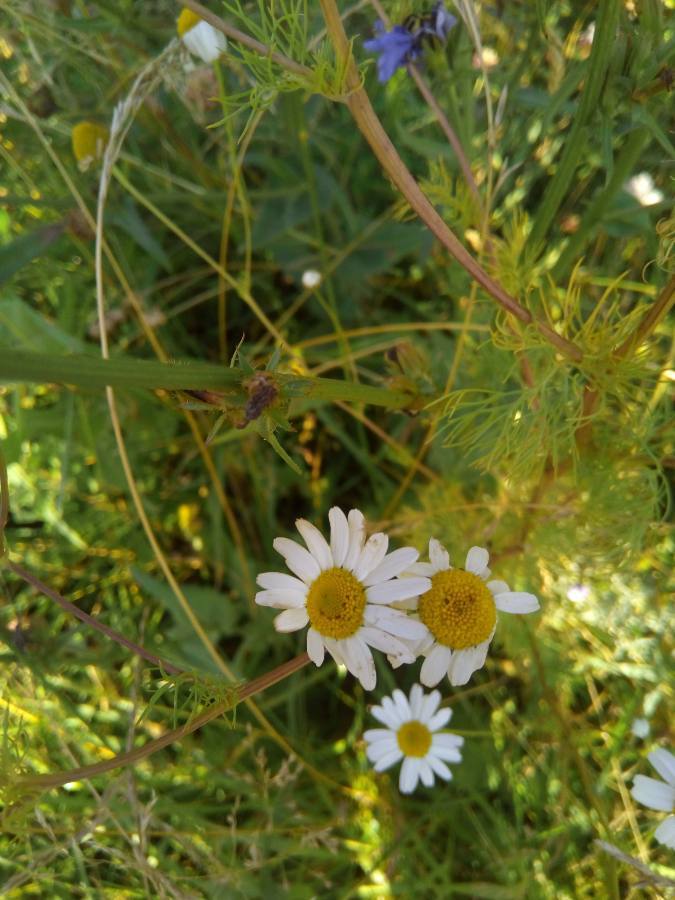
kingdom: Plantae
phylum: Tracheophyta
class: Magnoliopsida
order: Asterales
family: Asteraceae
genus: Tripleurospermum
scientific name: Tripleurospermum inodorum
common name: Scentless mayweed
